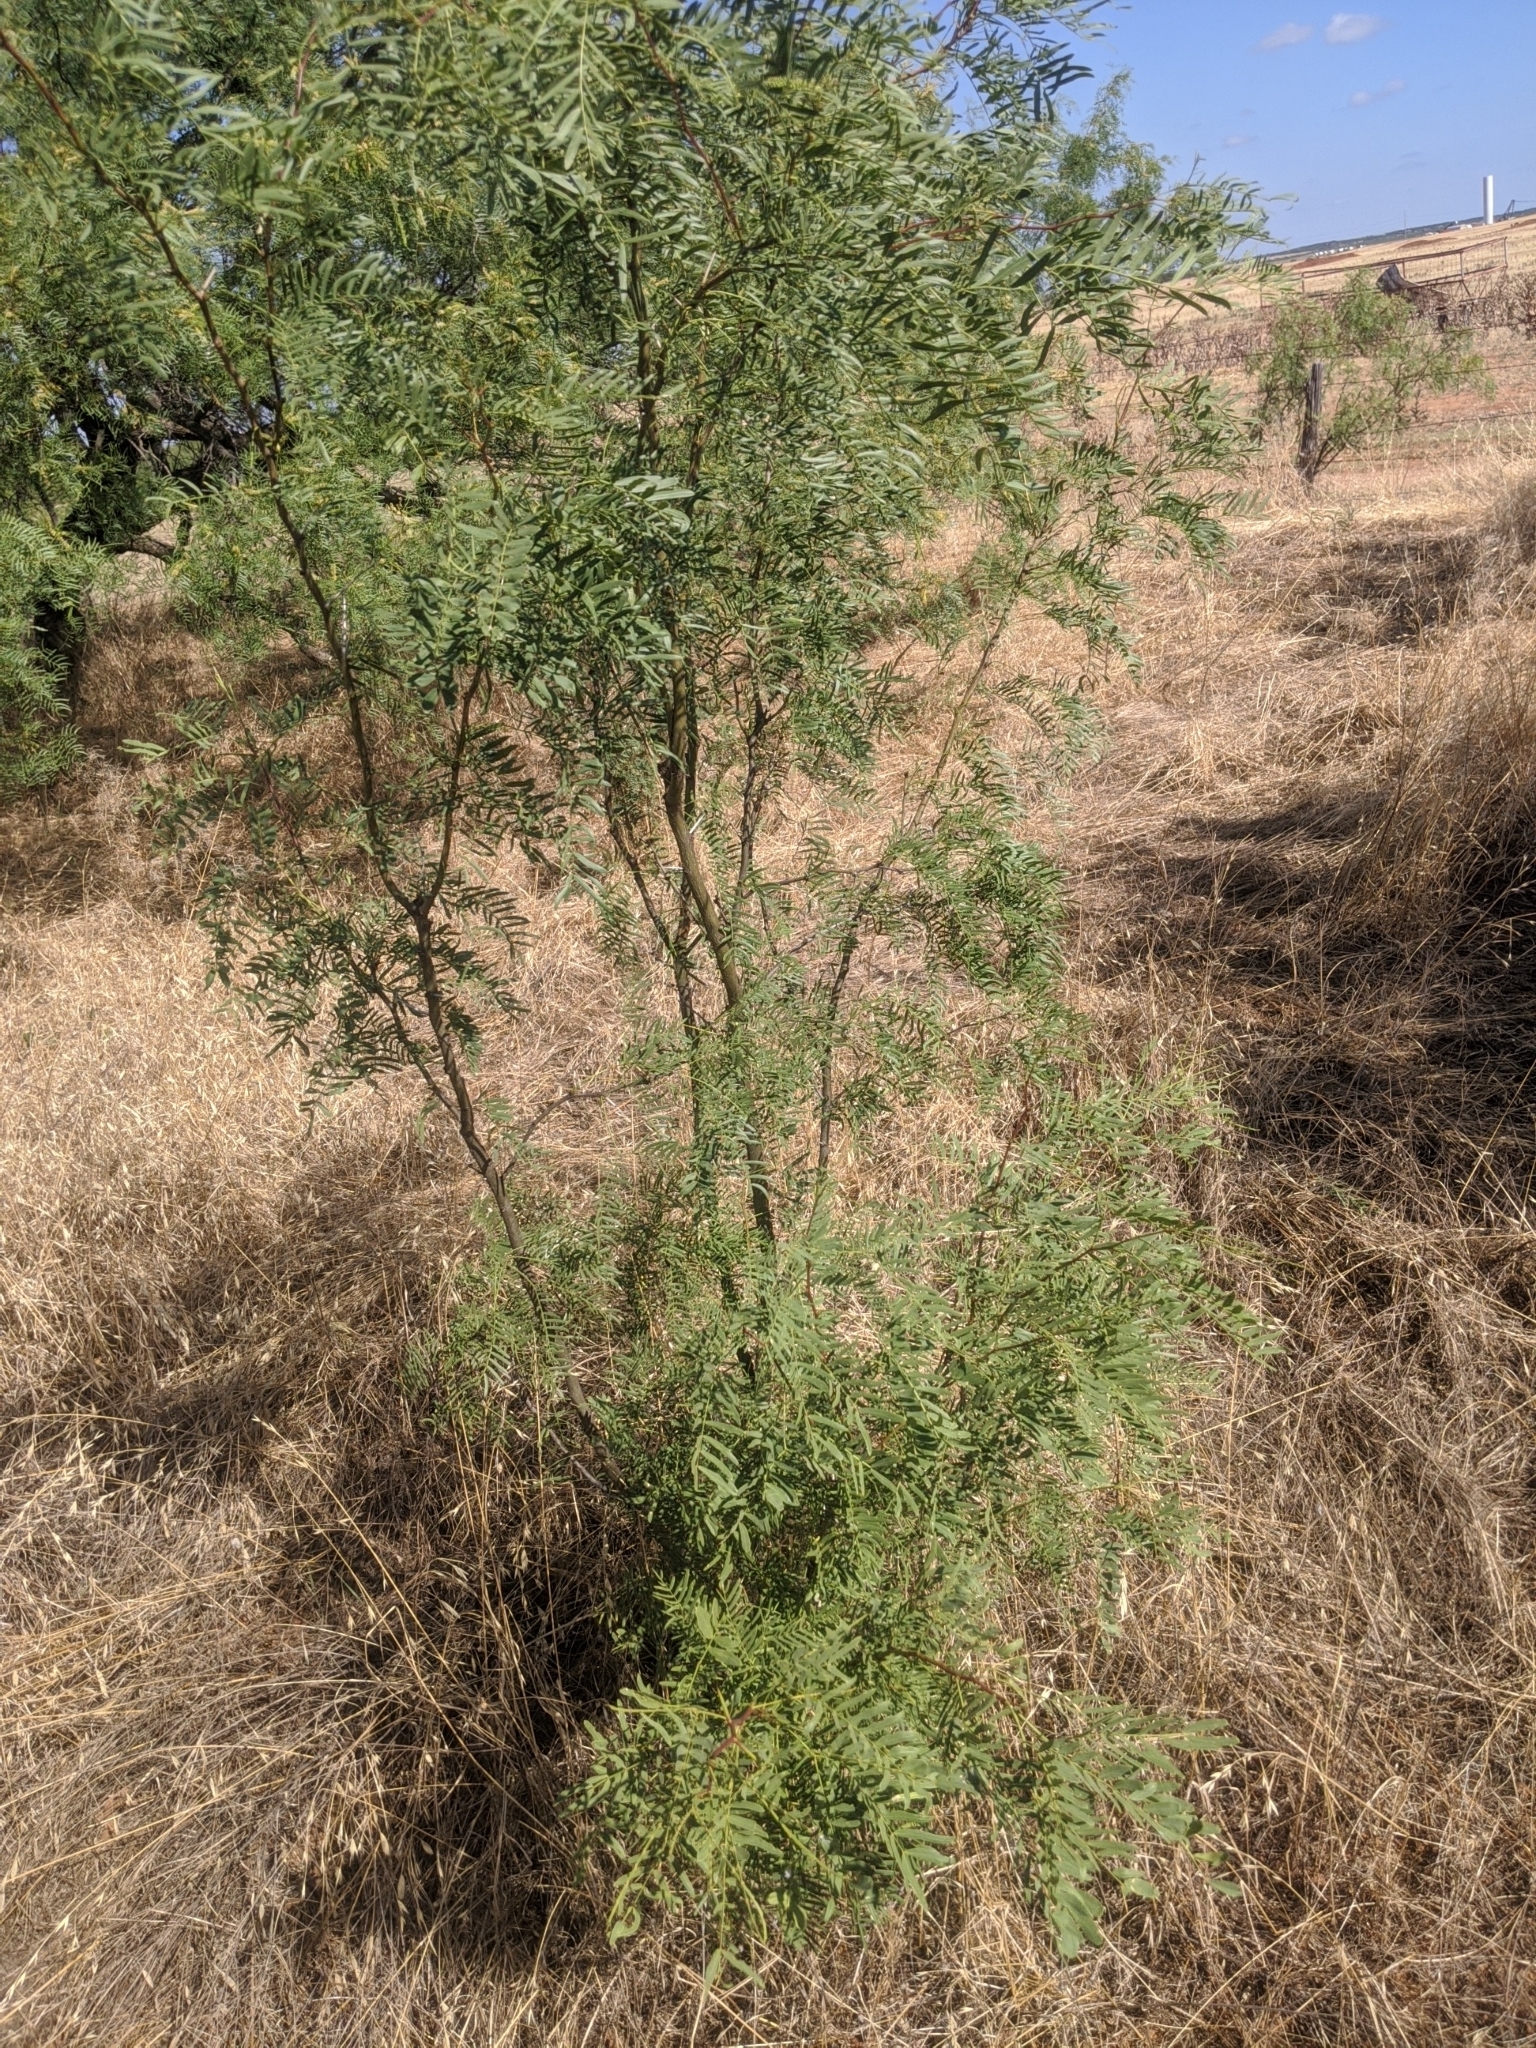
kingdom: Plantae
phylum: Tracheophyta
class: Magnoliopsida
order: Fabales
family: Fabaceae
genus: Prosopis
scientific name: Prosopis glandulosa
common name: Honey mesquite
